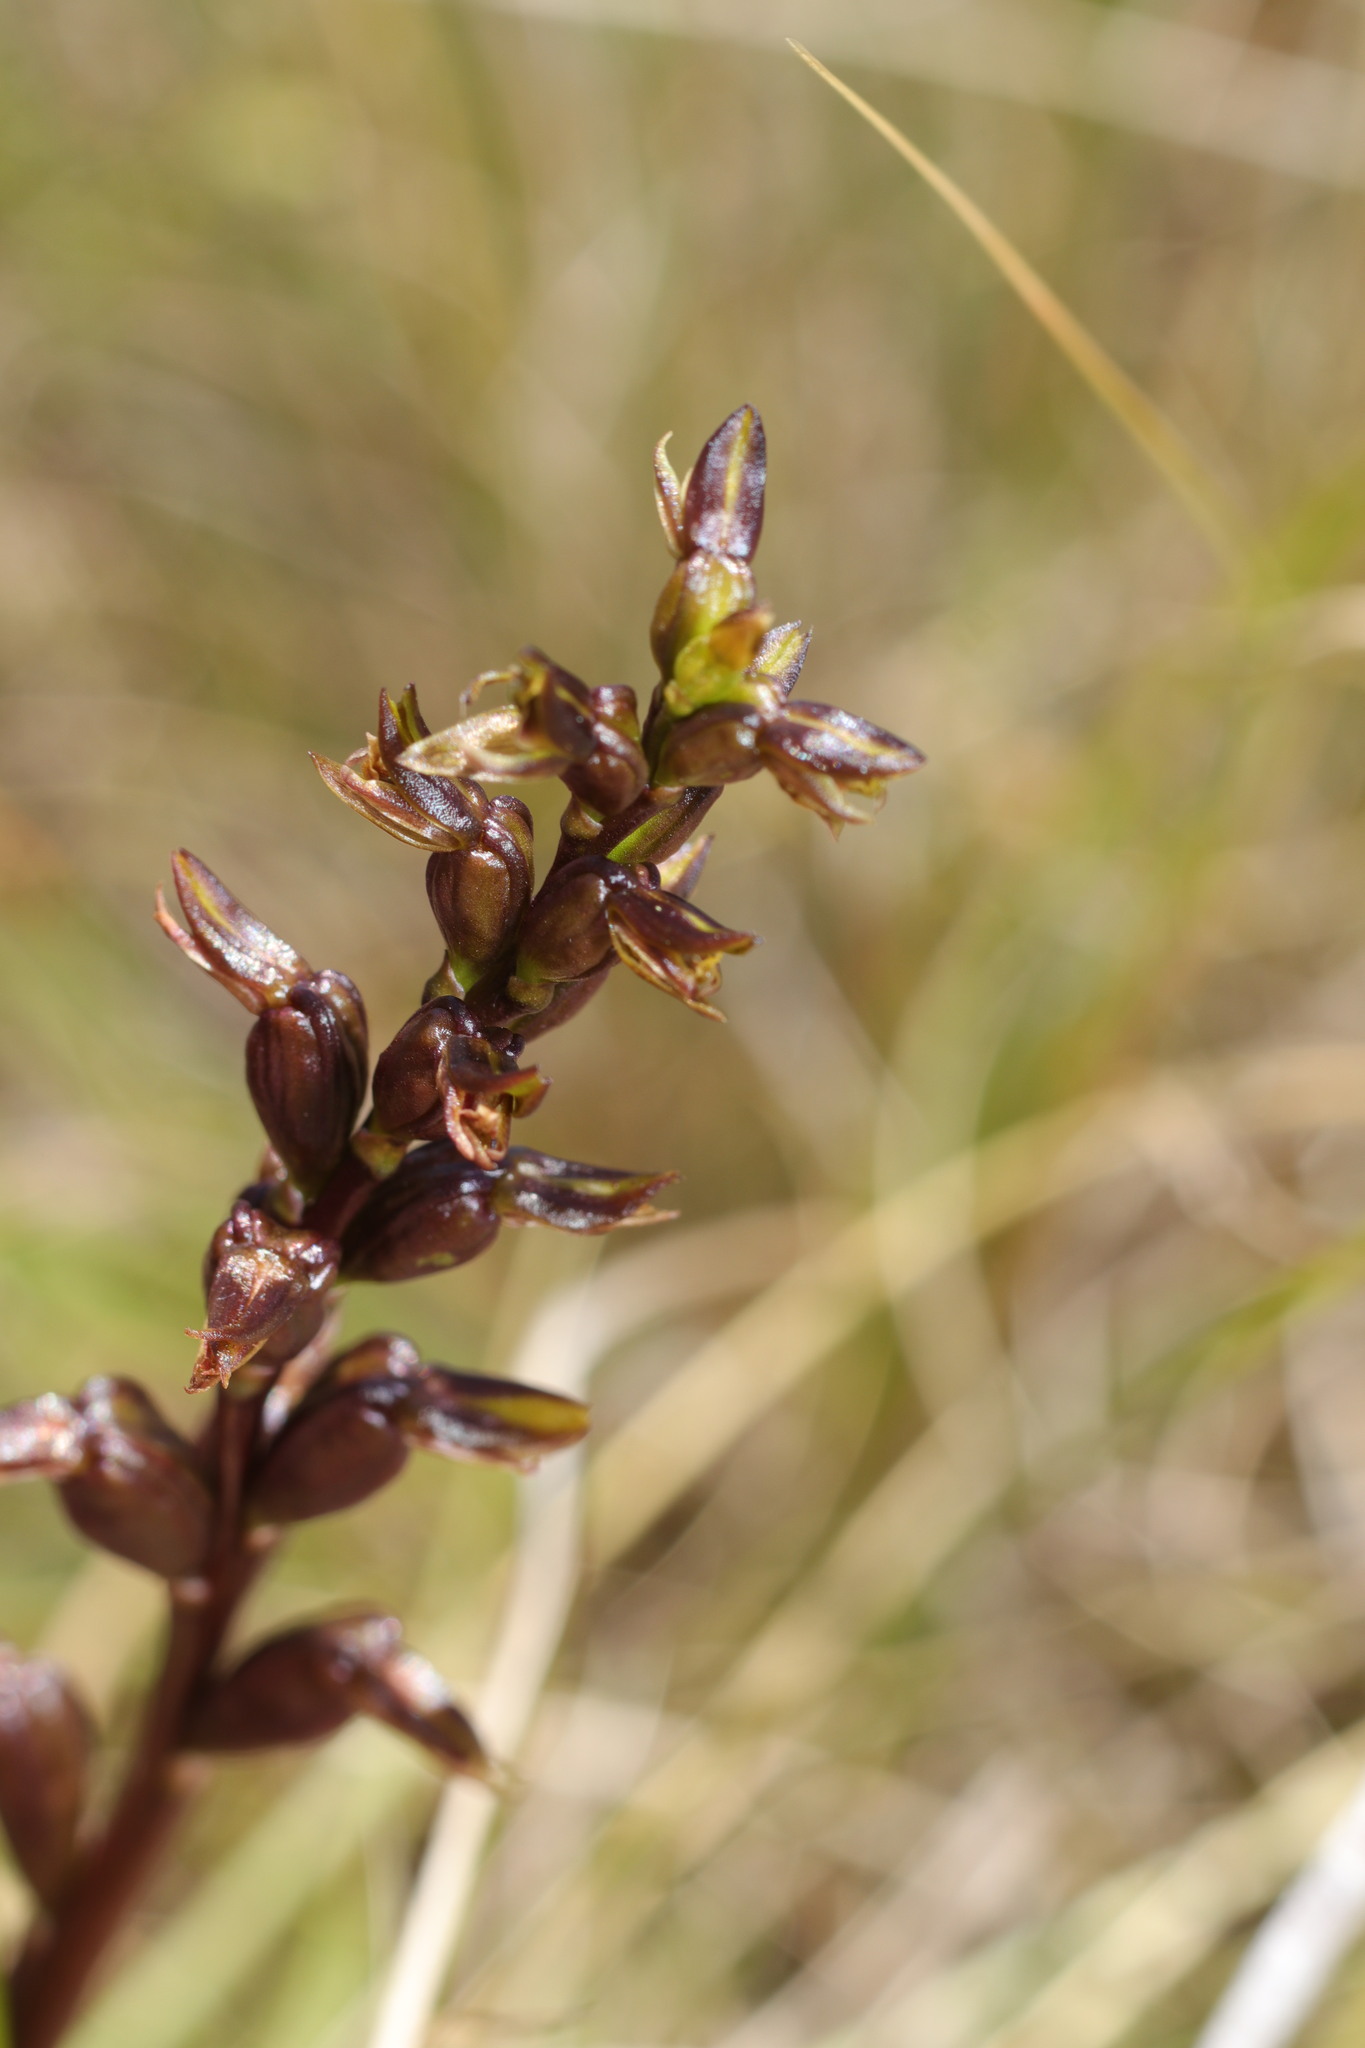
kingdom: Plantae
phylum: Tracheophyta
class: Liliopsida
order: Asparagales
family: Orchidaceae
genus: Prasophyllum
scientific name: Prasophyllum colensoi
